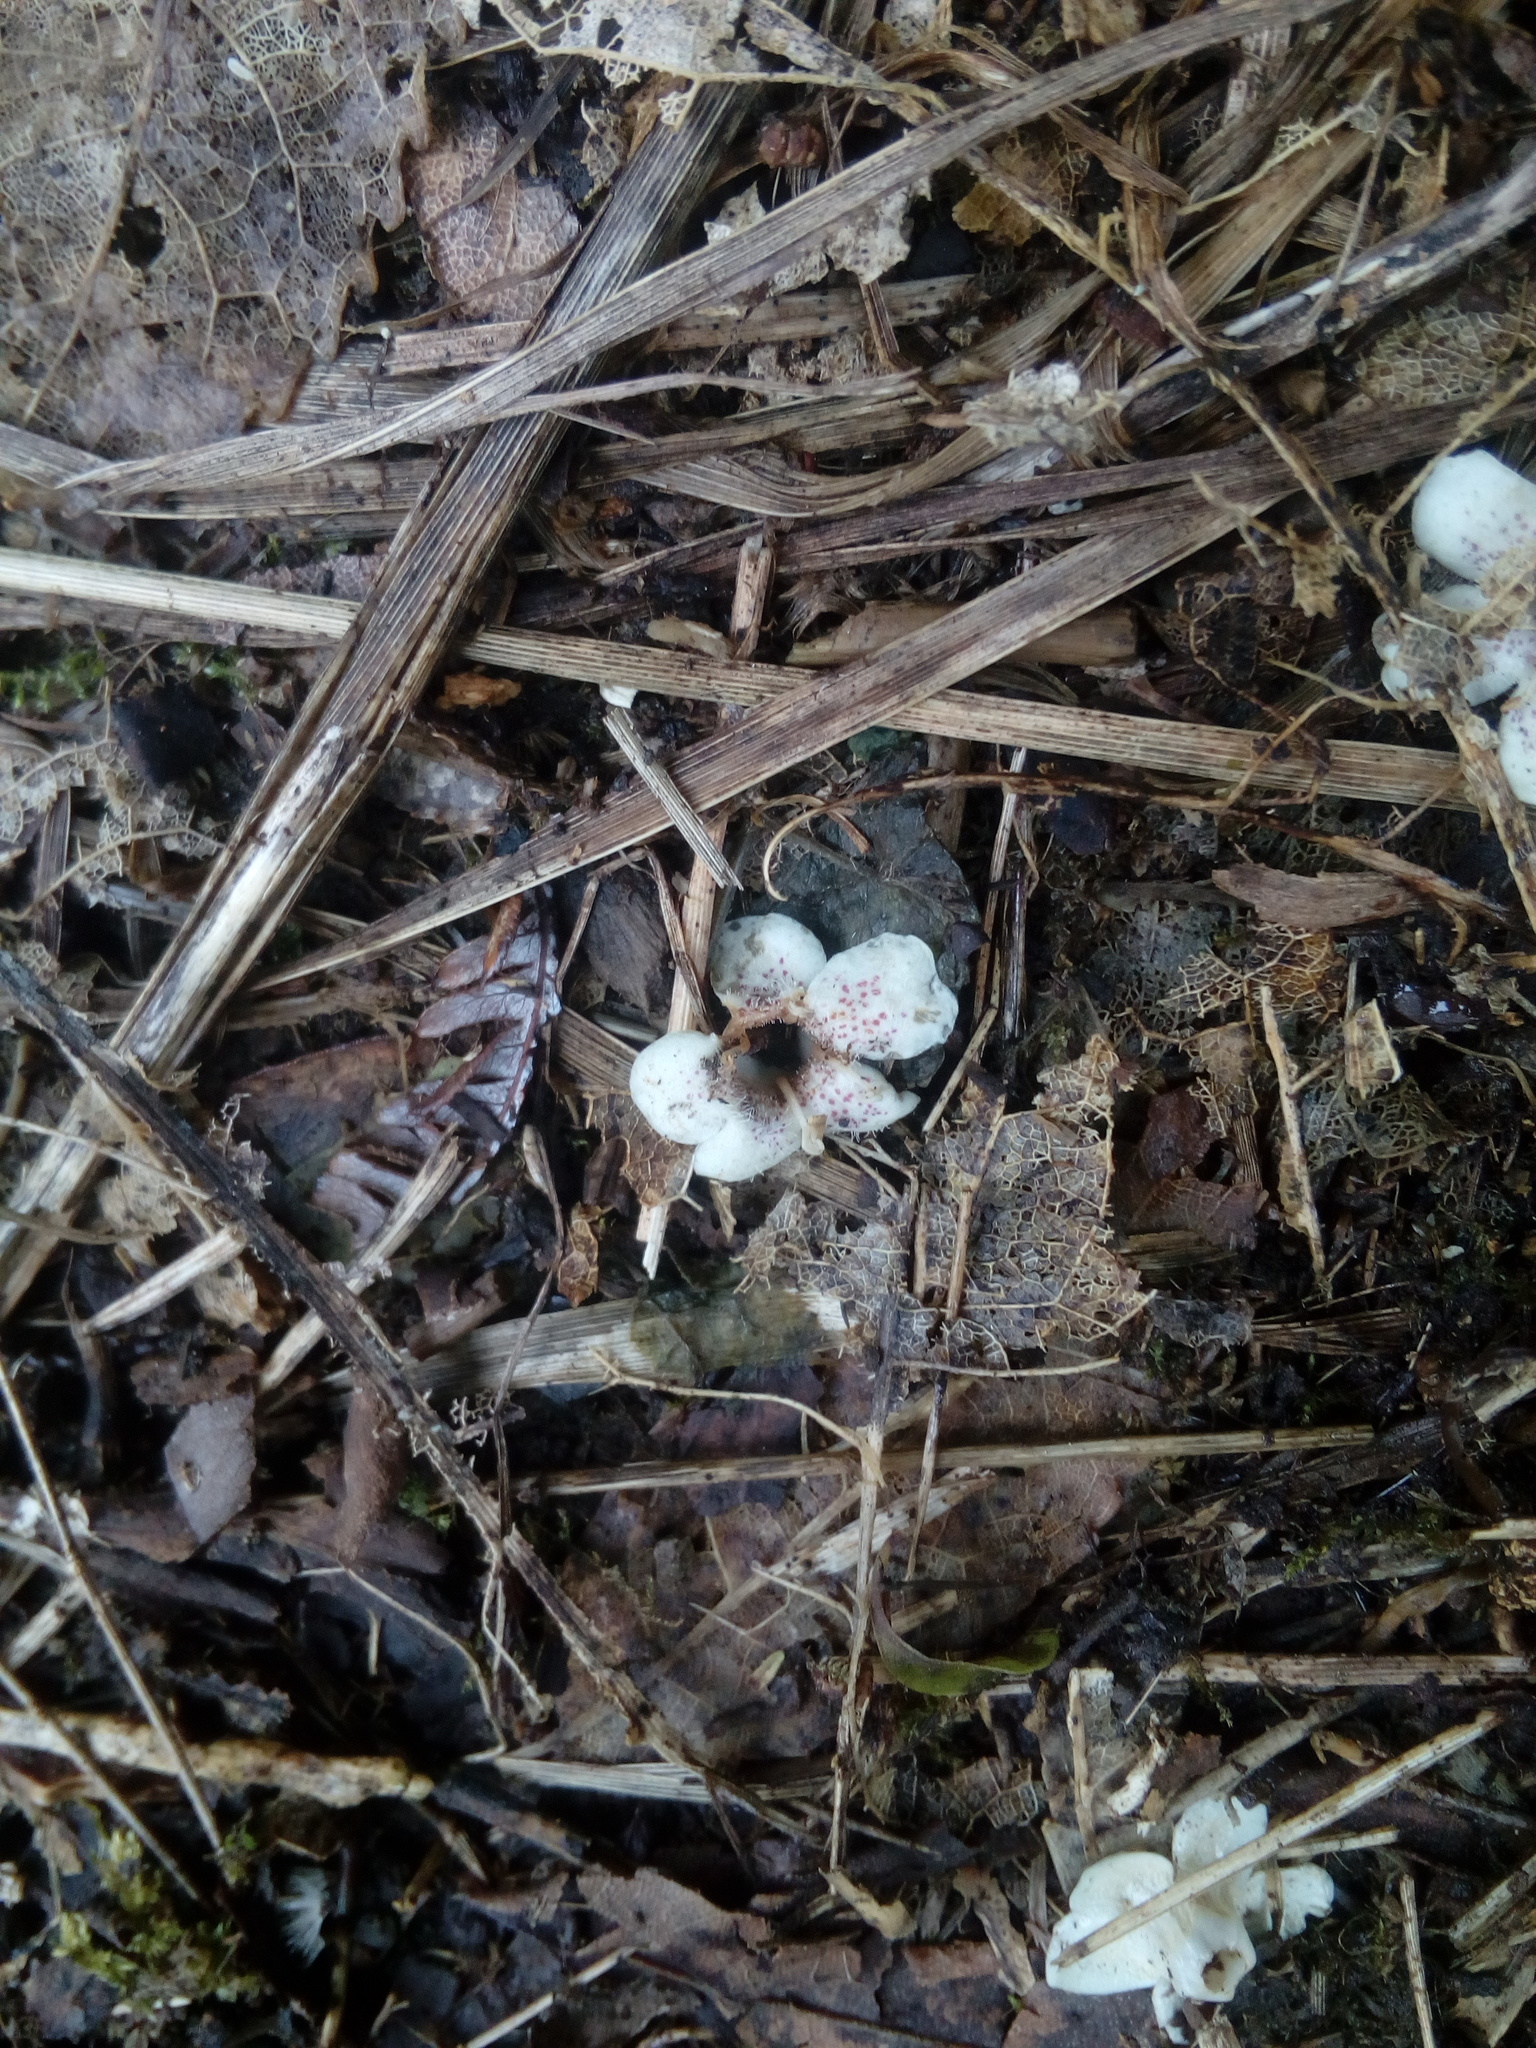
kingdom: Plantae
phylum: Tracheophyta
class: Magnoliopsida
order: Lamiales
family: Scrophulariaceae
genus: Myoporum
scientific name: Myoporum laetum
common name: Ngaio tree
